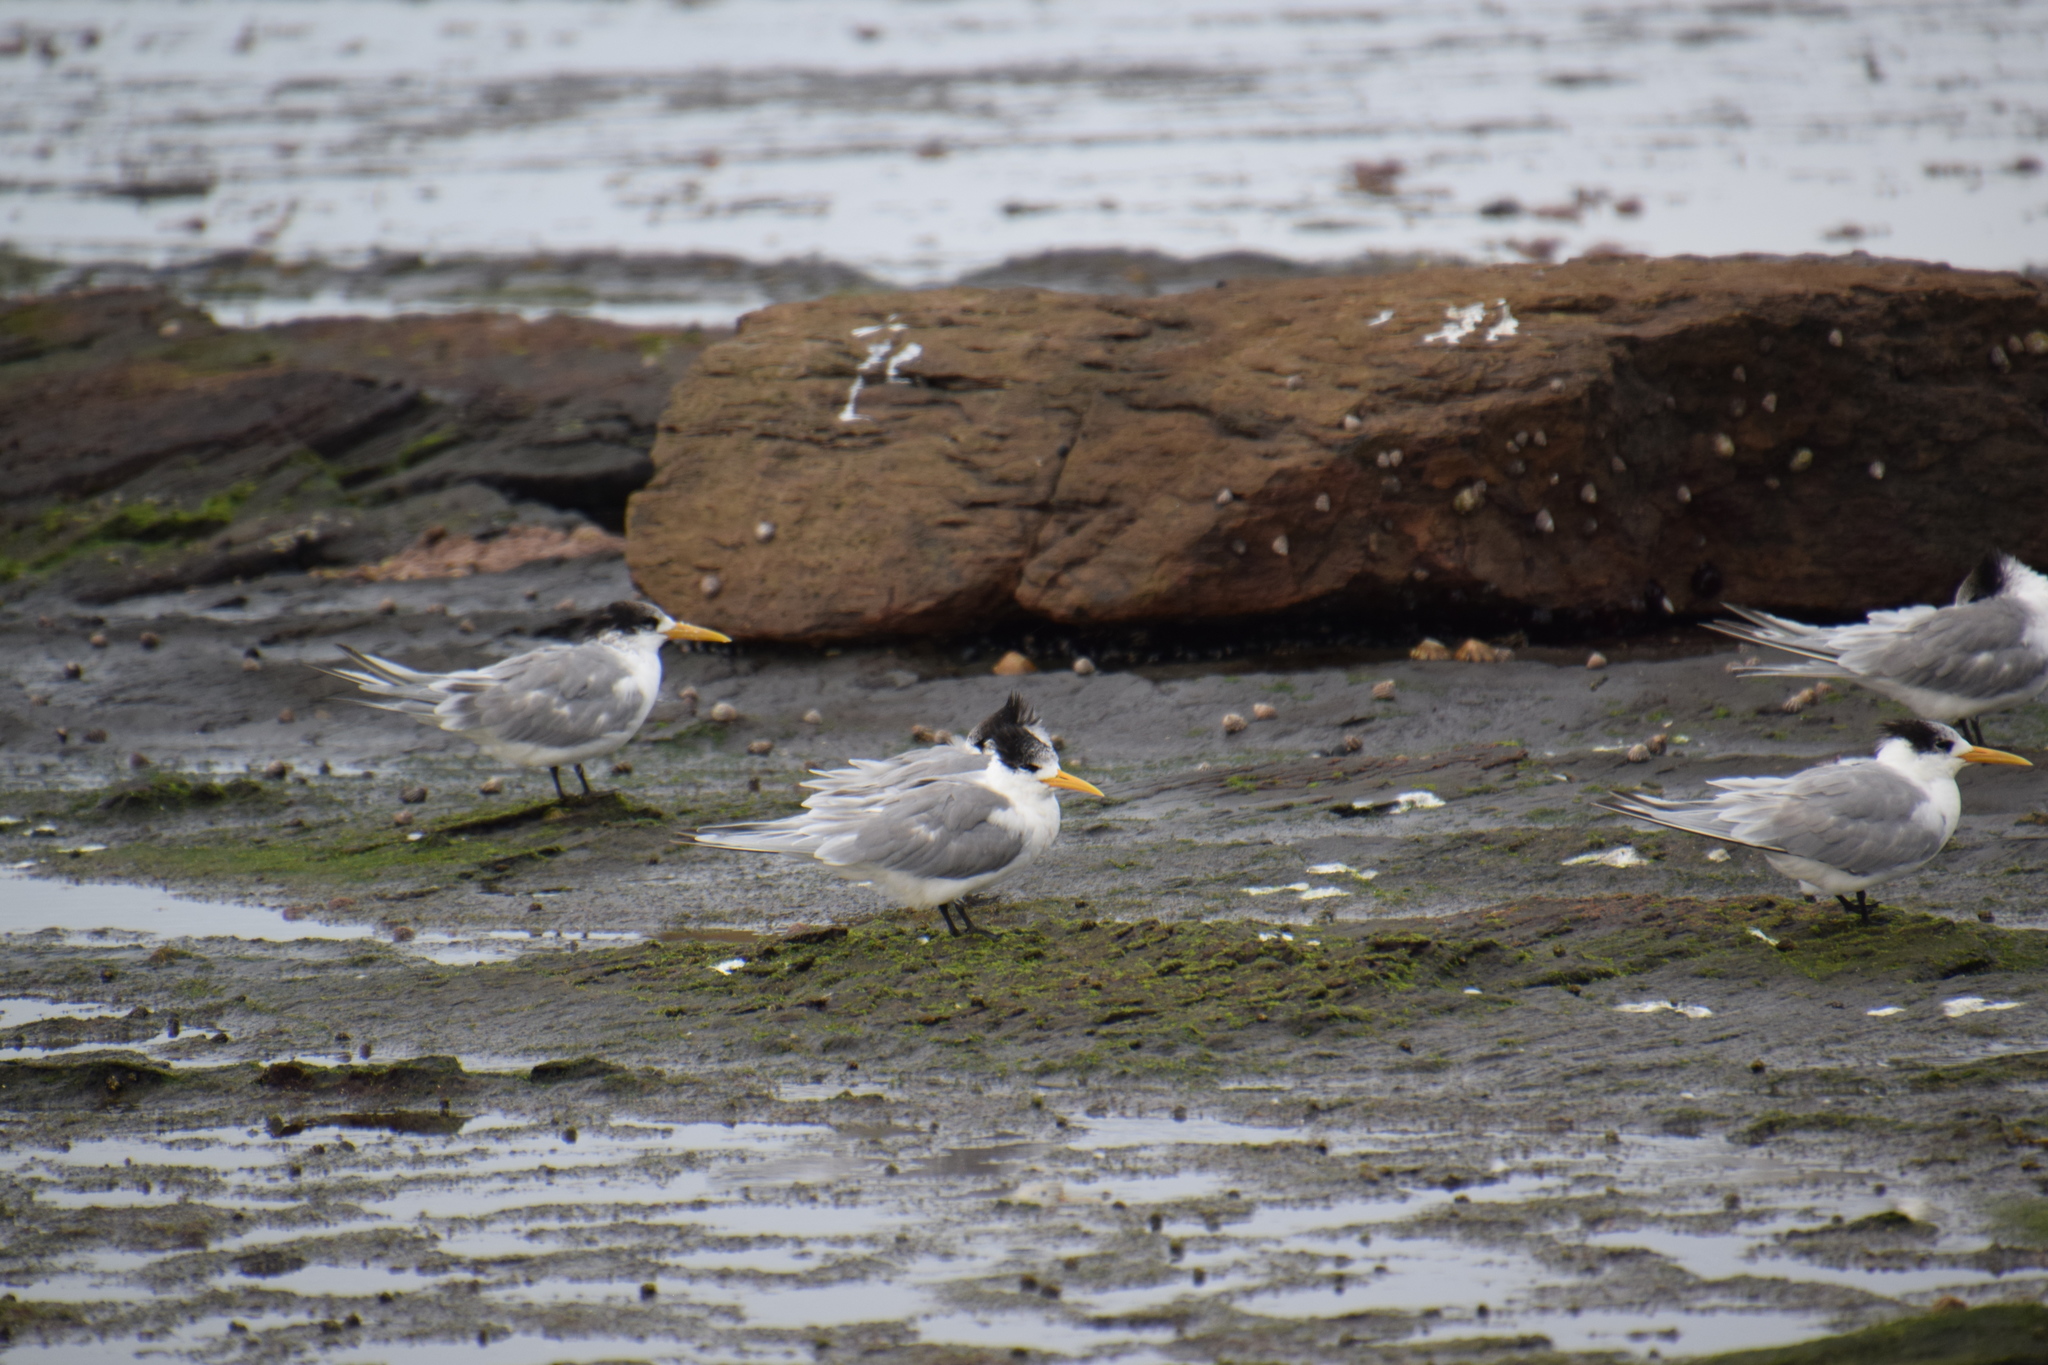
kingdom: Animalia
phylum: Chordata
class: Aves
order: Charadriiformes
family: Laridae
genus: Thalasseus
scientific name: Thalasseus bergii
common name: Greater crested tern
